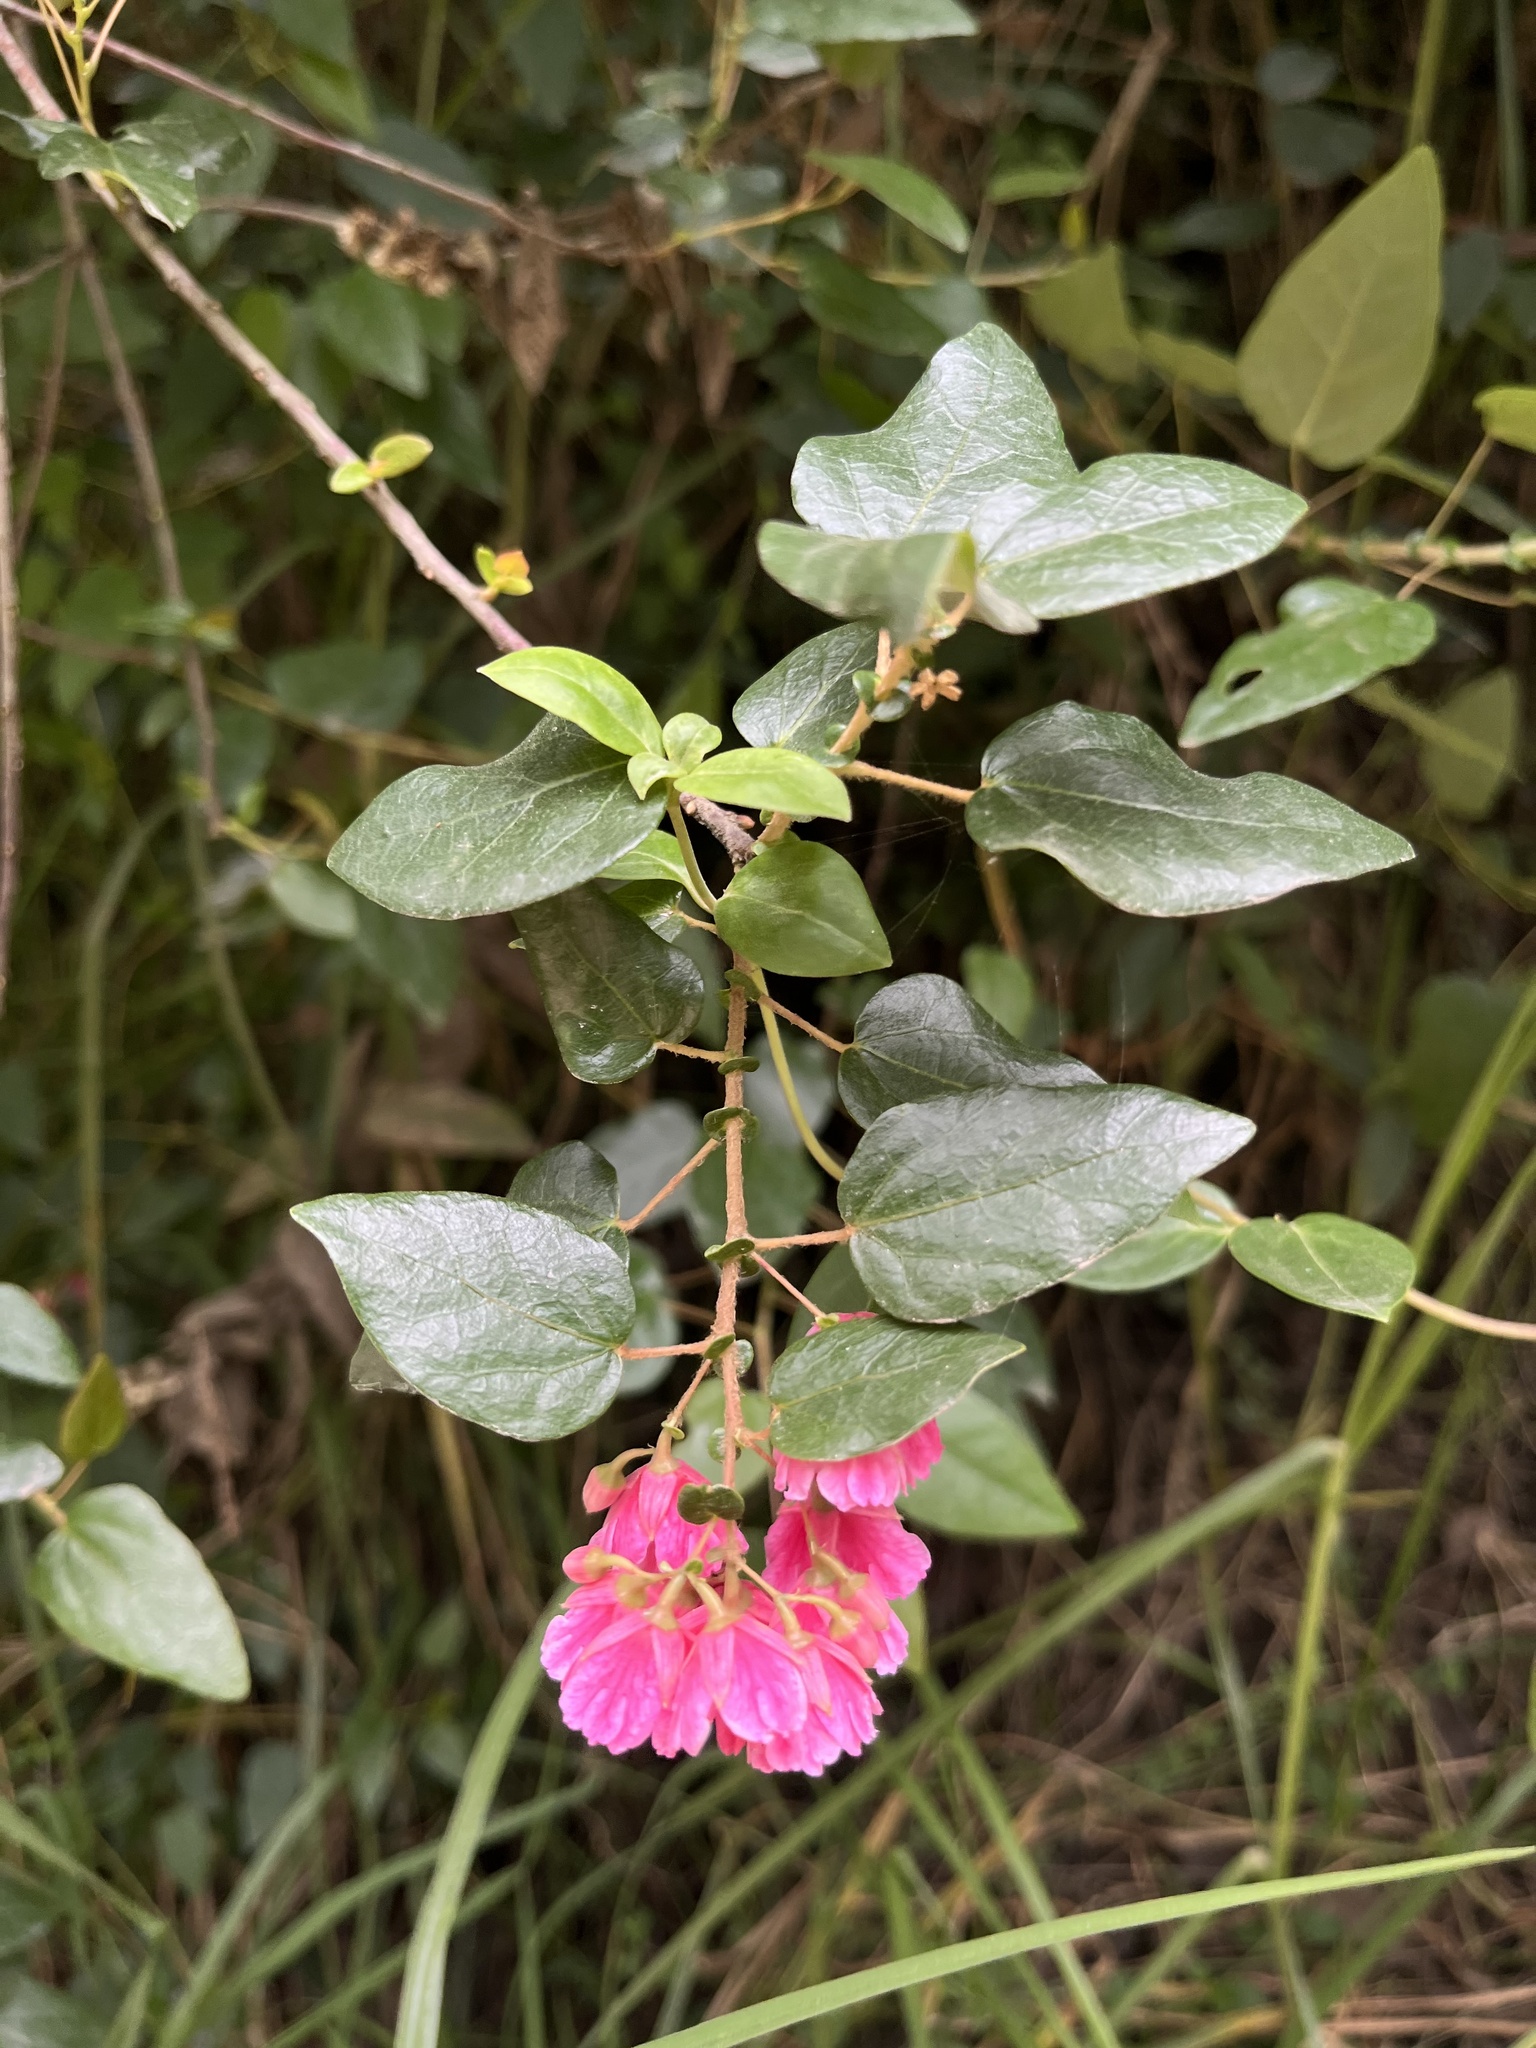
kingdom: Plantae
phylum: Tracheophyta
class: Magnoliopsida
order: Oxalidales
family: Elaeocarpaceae
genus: Vallea
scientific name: Vallea stipularis
